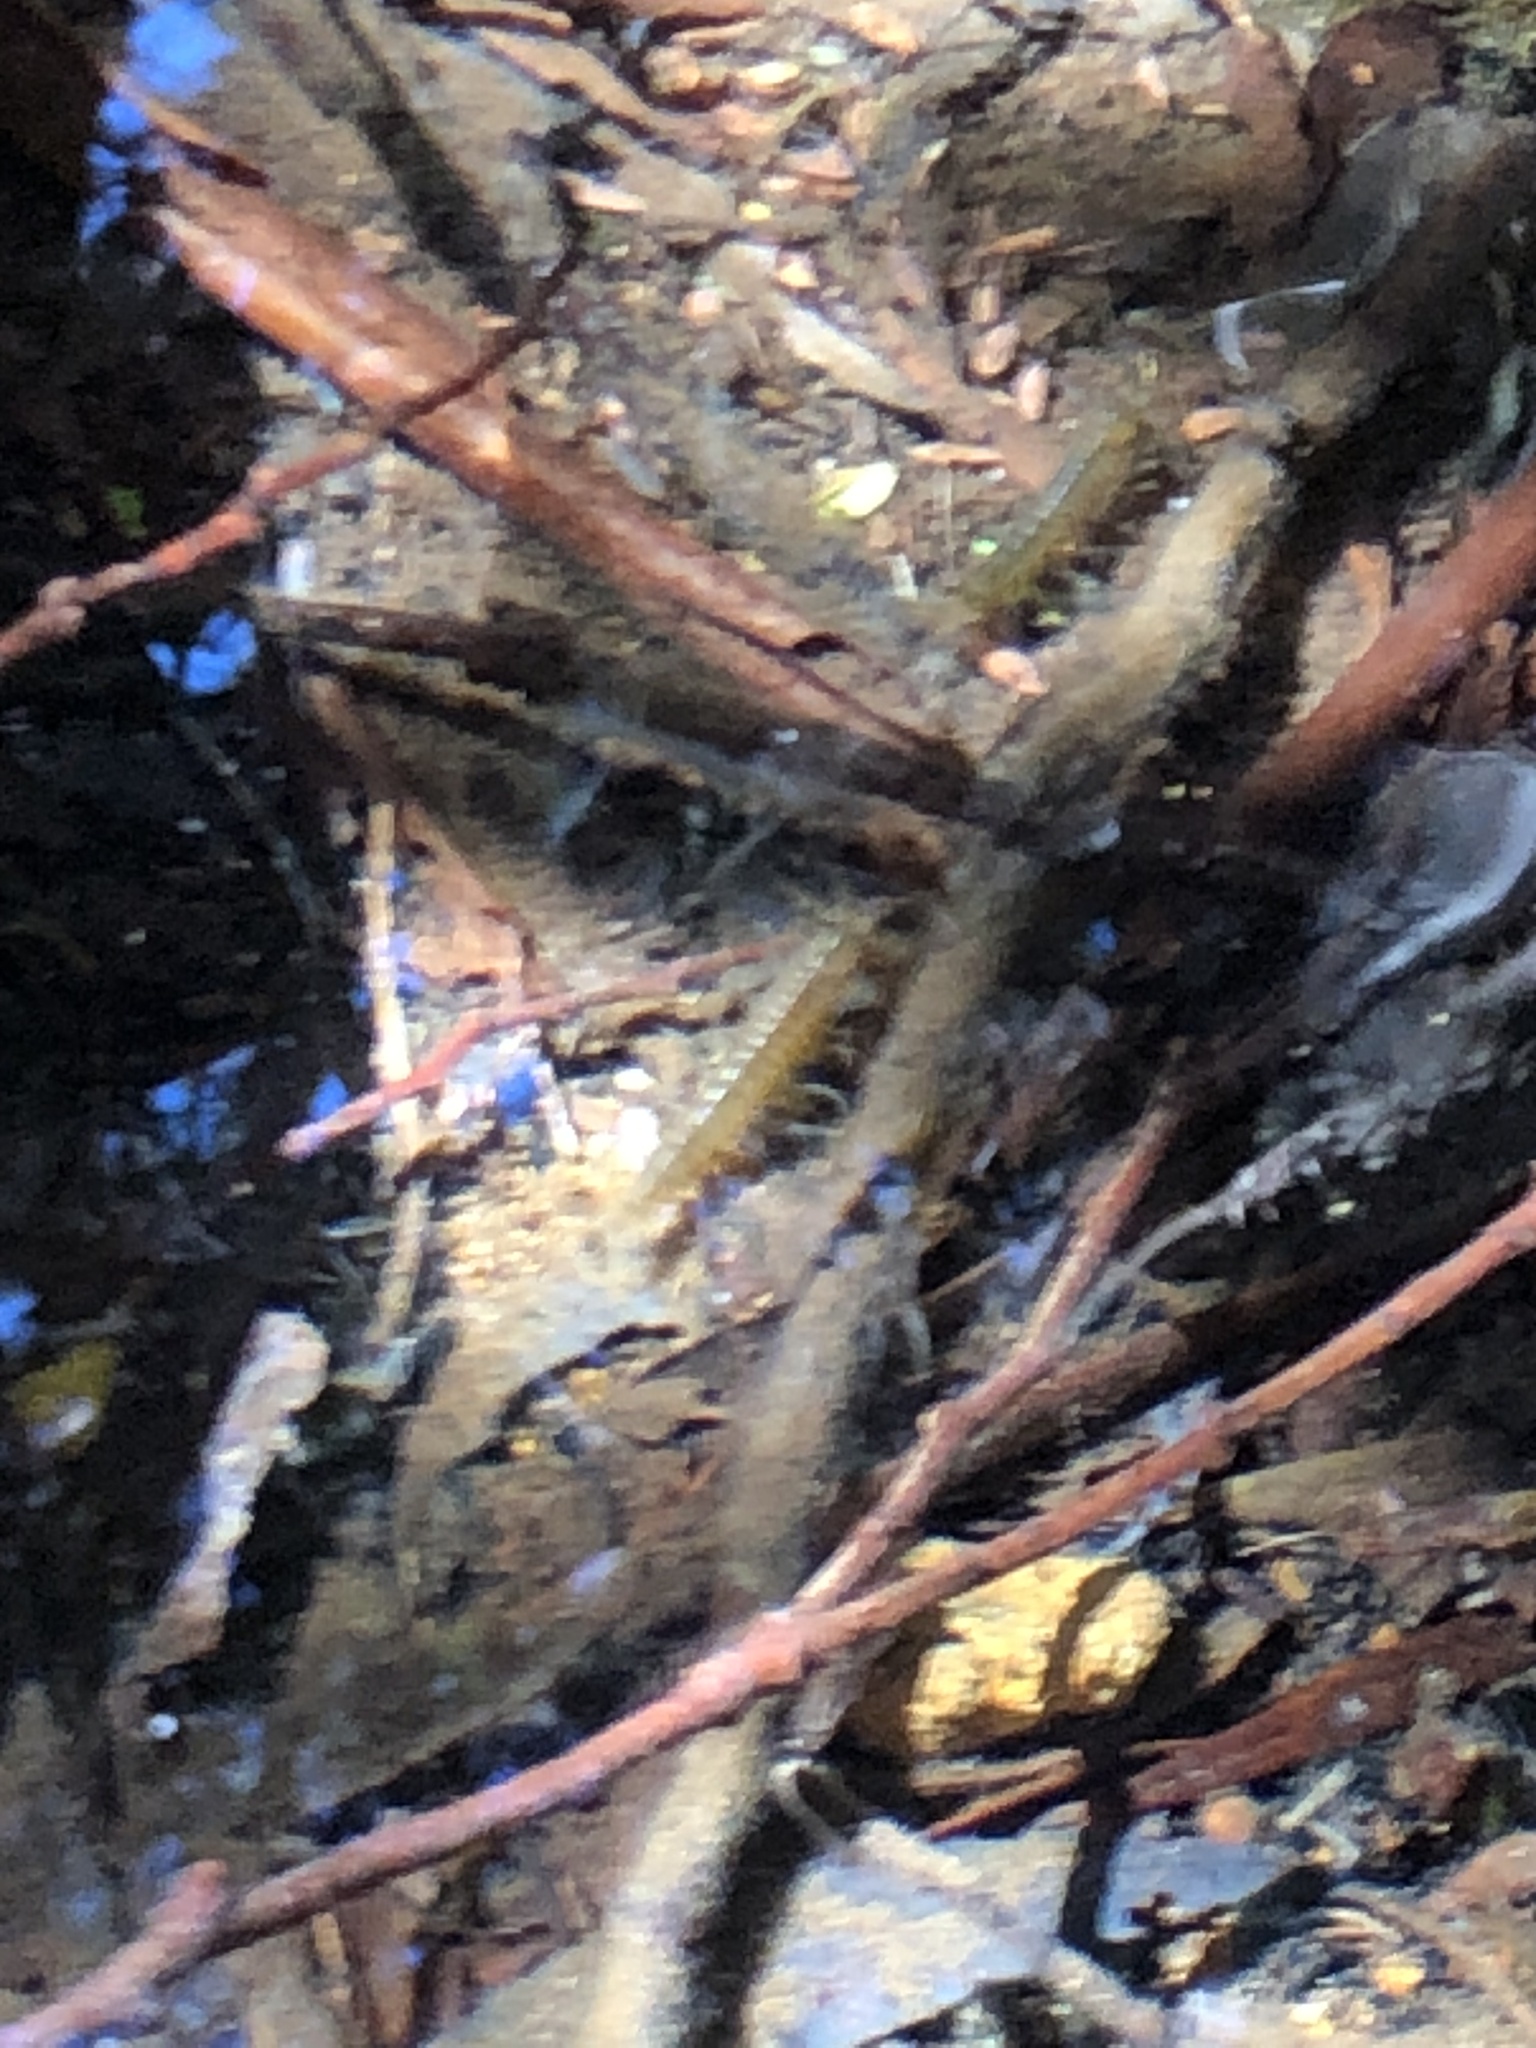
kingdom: Animalia
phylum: Arthropoda
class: Malacostraca
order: Anaspidacea
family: Anaspidesidae
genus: Anaspides
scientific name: Anaspides tasmaniae
